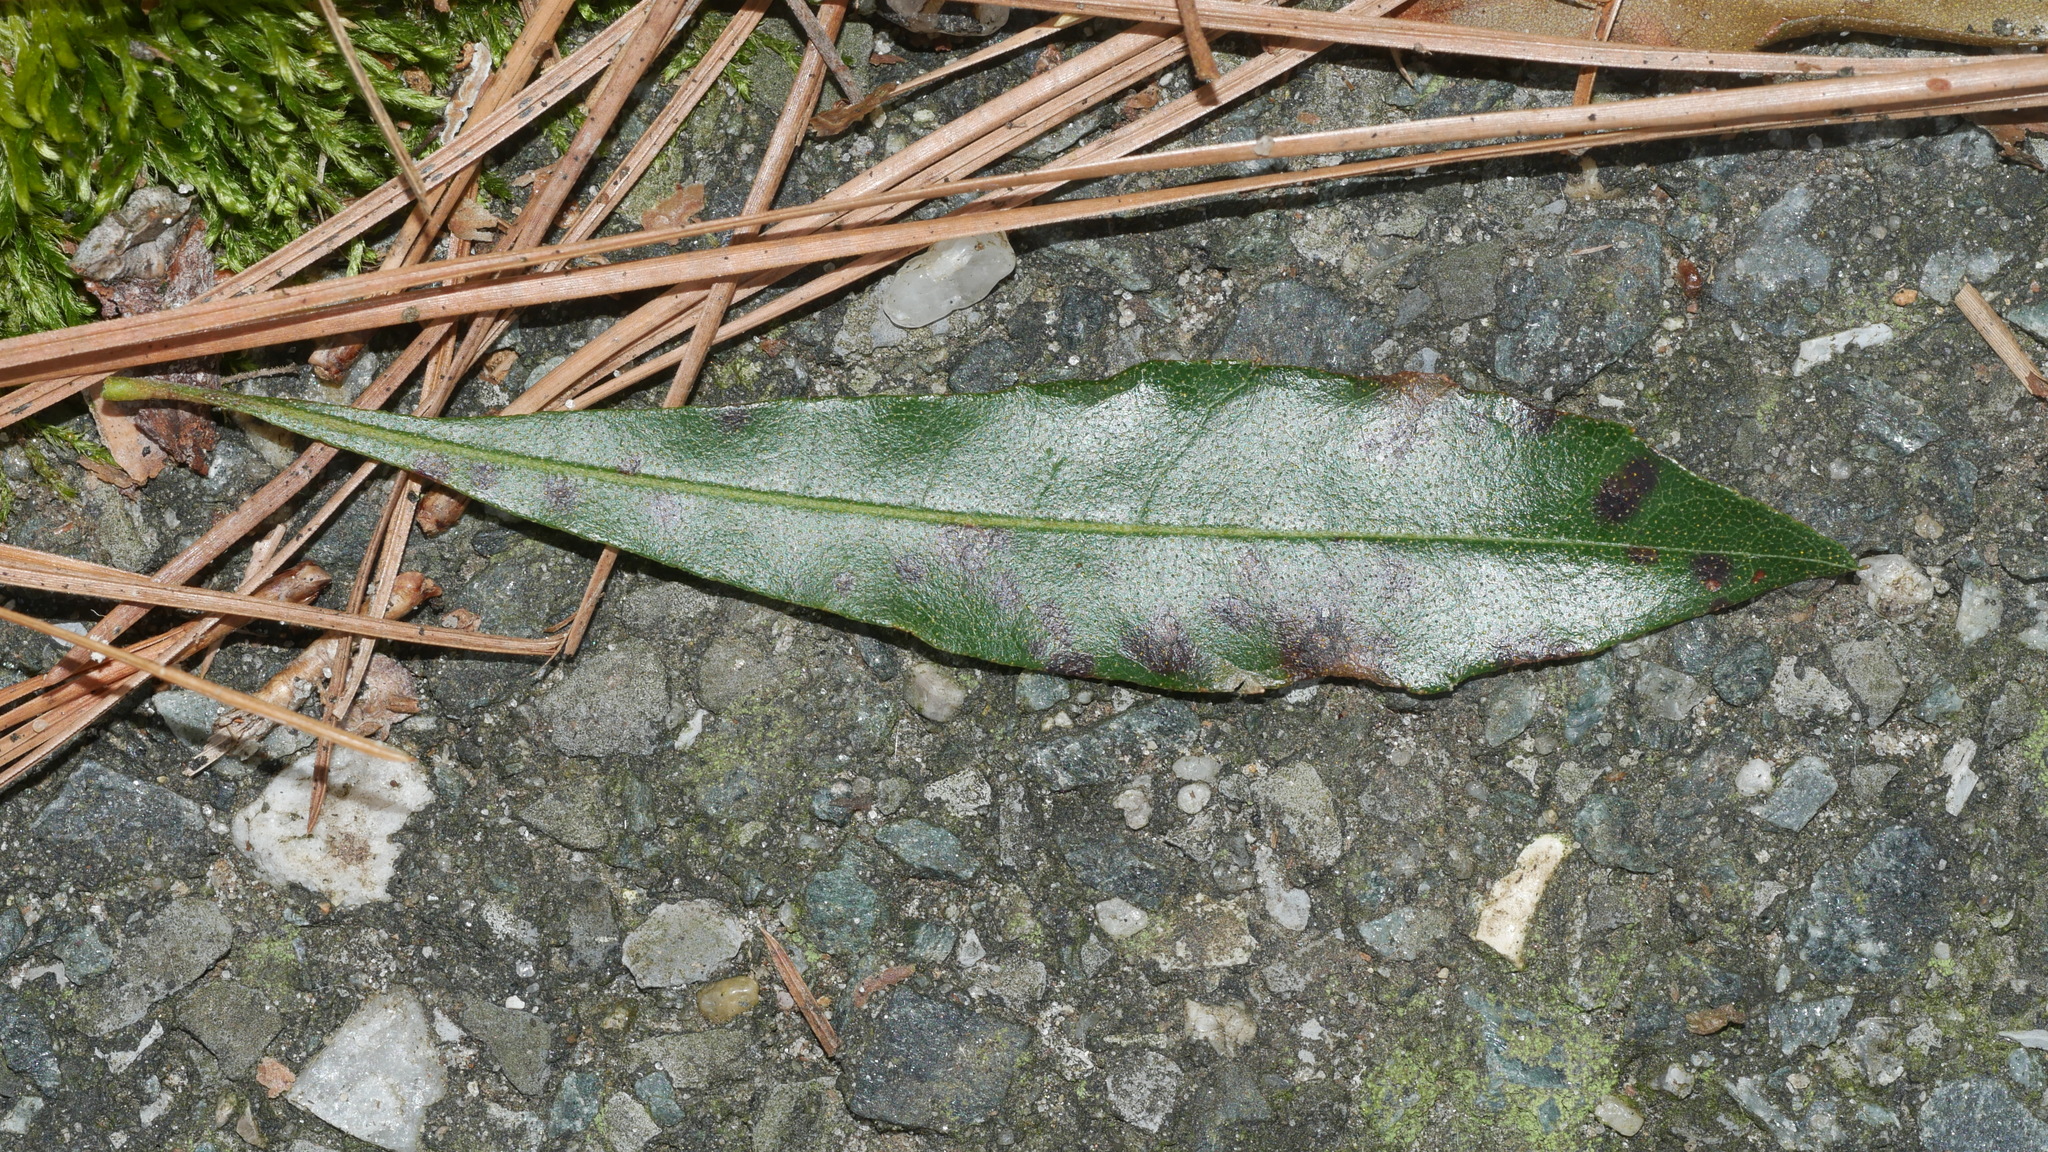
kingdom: Plantae
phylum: Tracheophyta
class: Magnoliopsida
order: Fagales
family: Myricaceae
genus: Morella
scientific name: Morella cerifera
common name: Wax myrtle
